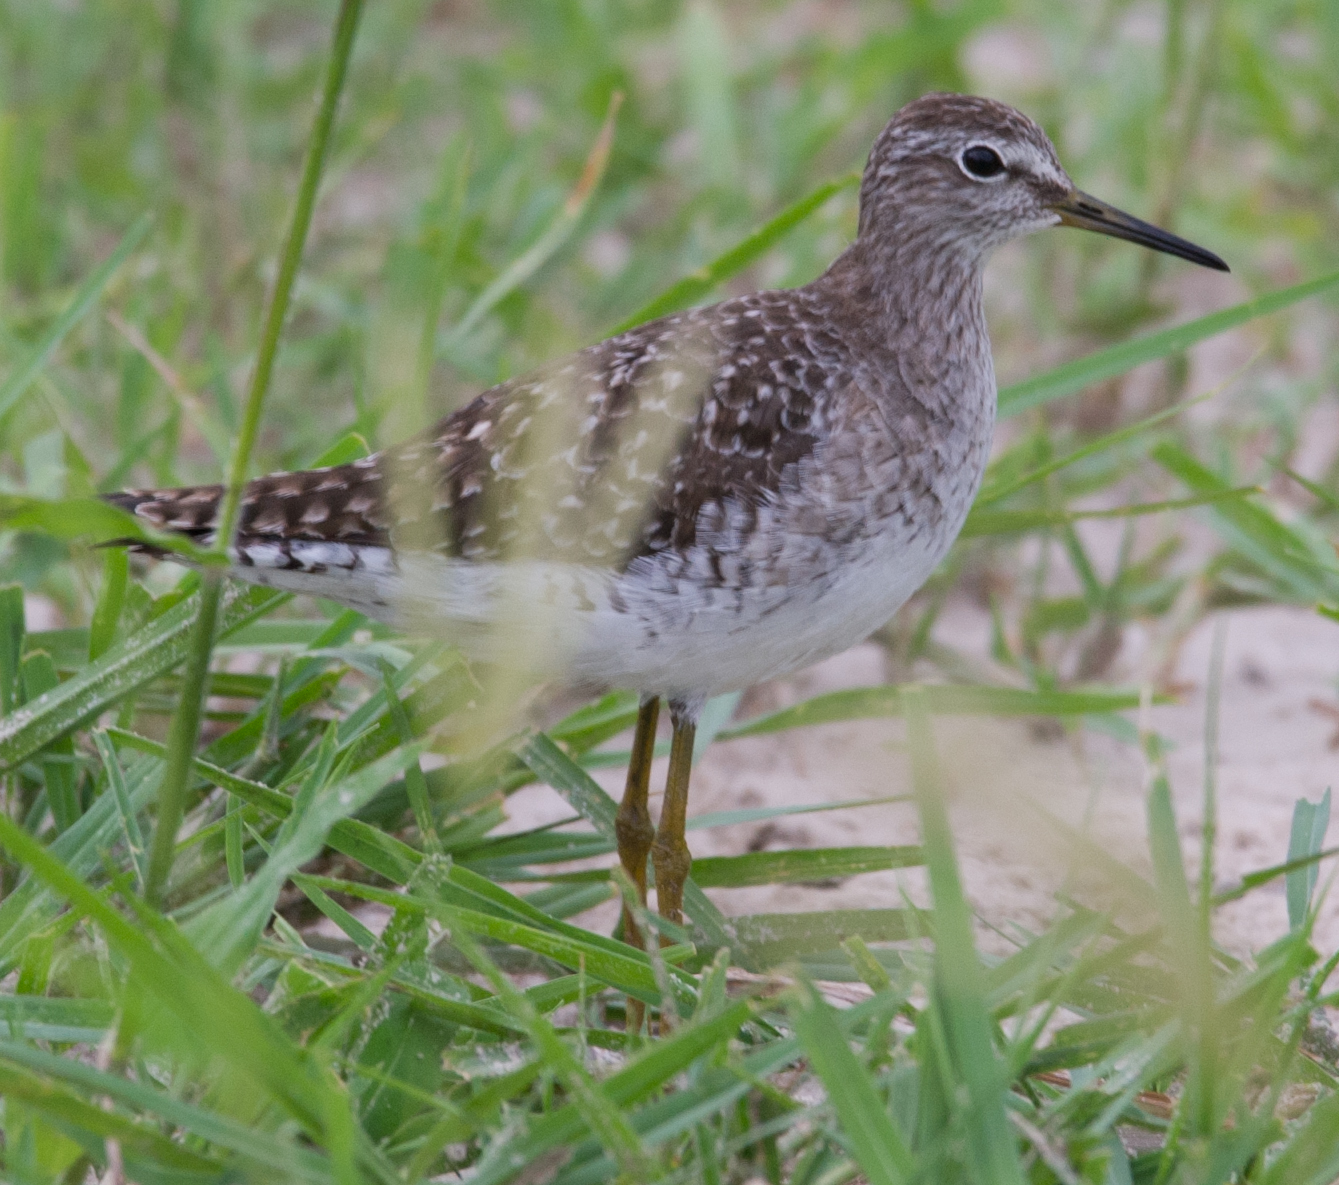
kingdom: Animalia
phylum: Chordata
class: Aves
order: Charadriiformes
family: Scolopacidae
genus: Tringa
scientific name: Tringa glareola
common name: Wood sandpiper
